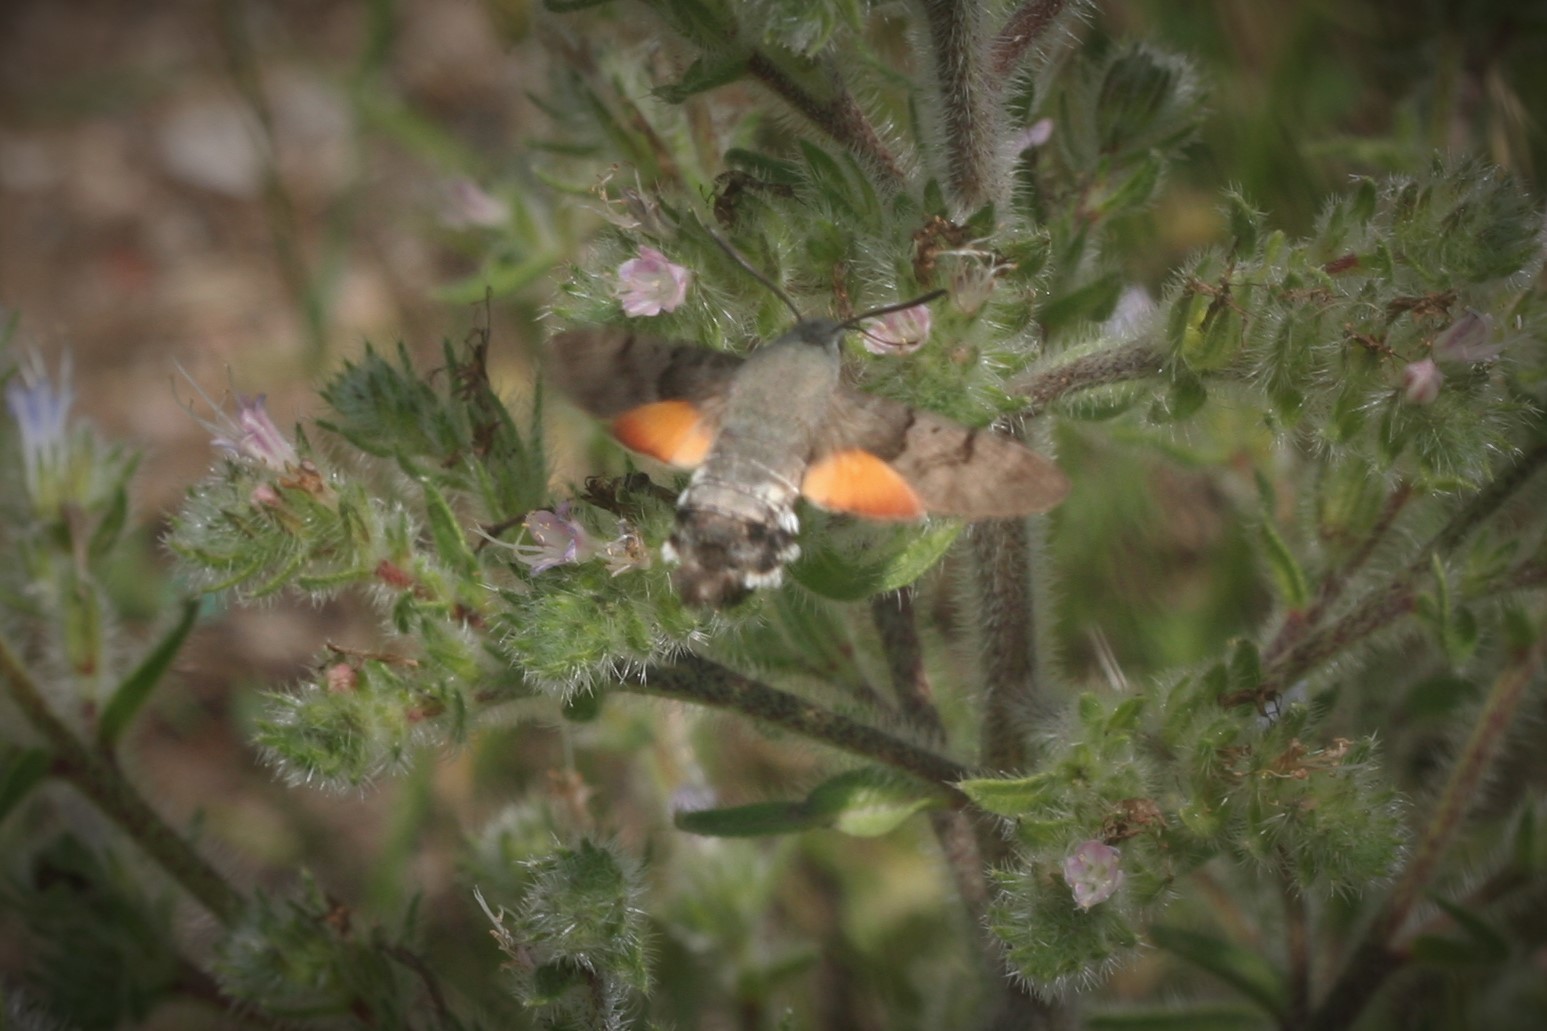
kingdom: Animalia
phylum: Arthropoda
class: Insecta
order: Lepidoptera
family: Sphingidae
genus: Macroglossum
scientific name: Macroglossum stellatarum
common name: Humming-bird hawk-moth
